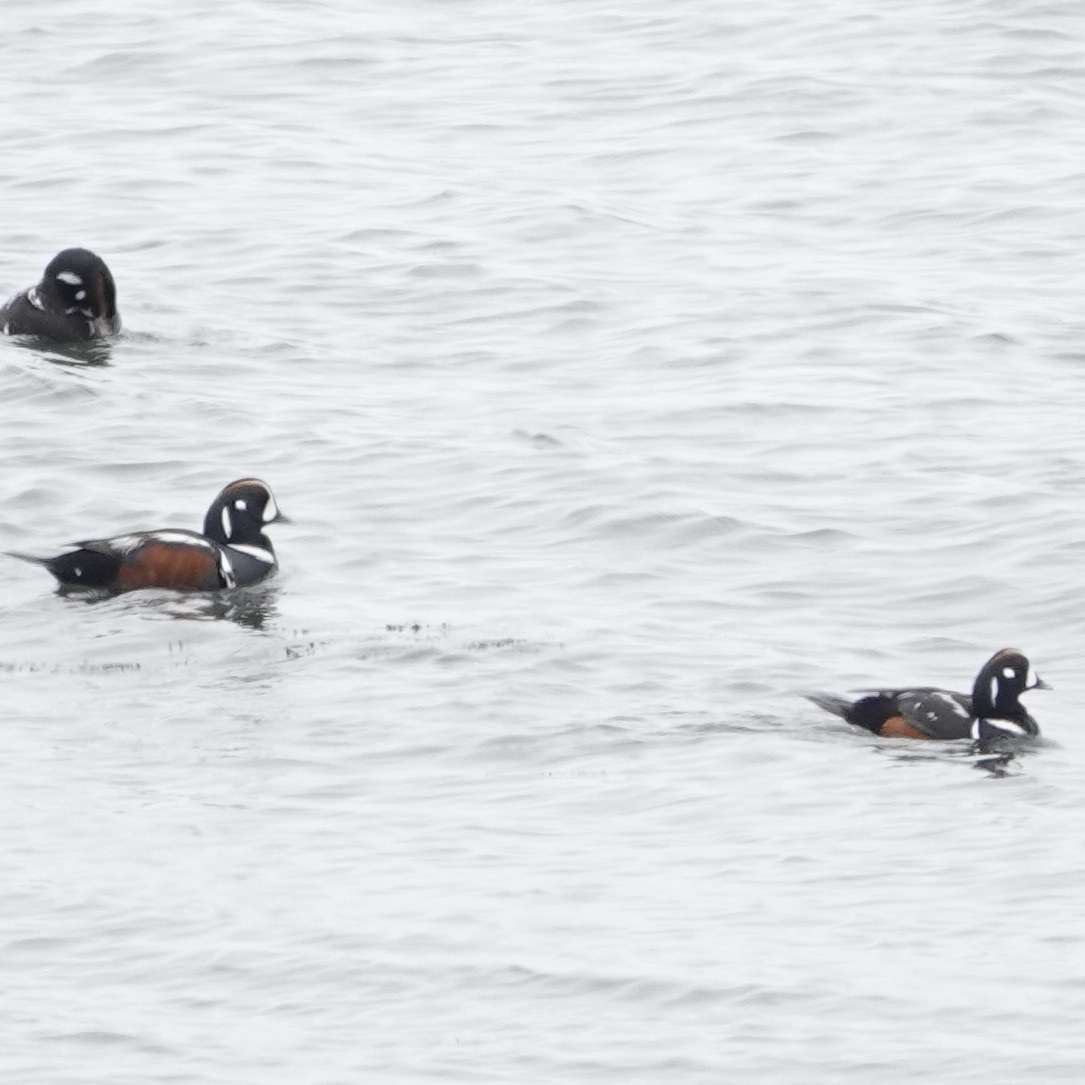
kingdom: Animalia
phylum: Chordata
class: Aves
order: Anseriformes
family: Anatidae
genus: Histrionicus
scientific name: Histrionicus histrionicus
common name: Harlequin duck
